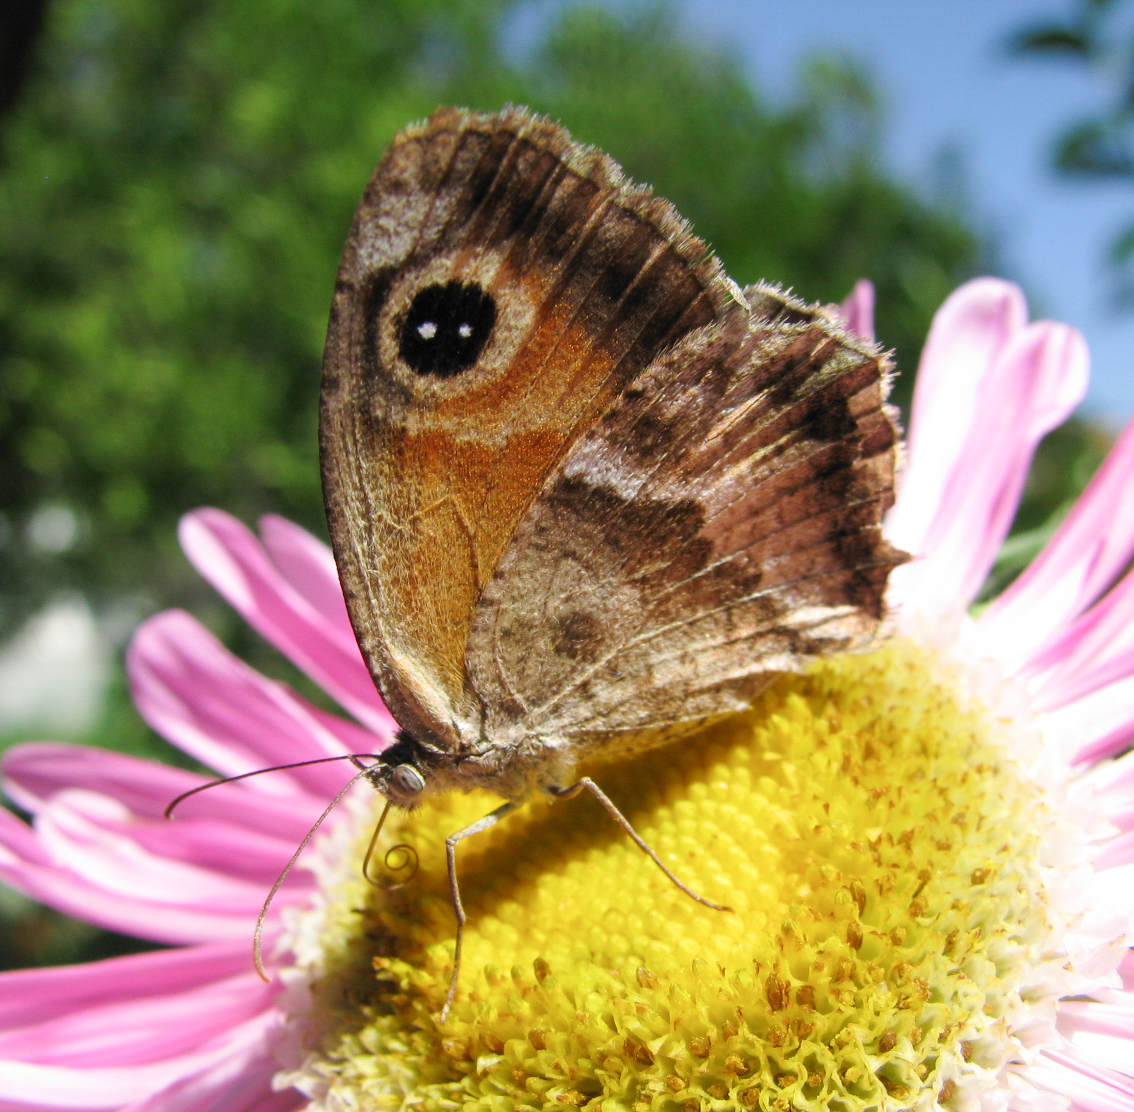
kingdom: Animalia
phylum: Arthropoda
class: Insecta
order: Lepidoptera
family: Nymphalidae
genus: Pyronia
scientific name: Pyronia cecilia
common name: Southern gatekeeper
